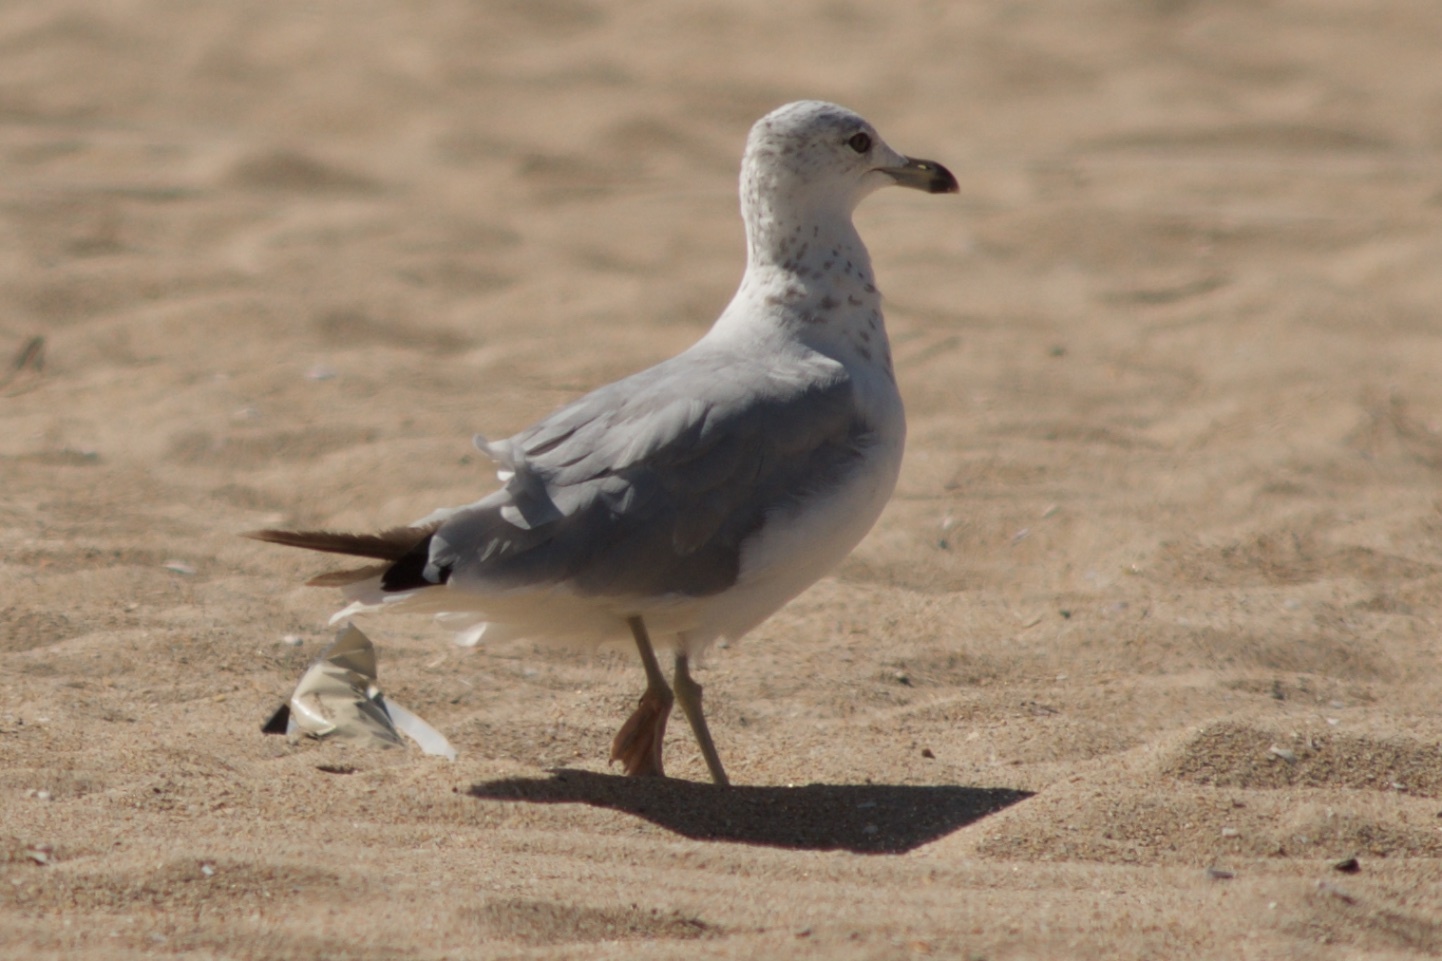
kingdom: Animalia
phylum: Chordata
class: Aves
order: Charadriiformes
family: Laridae
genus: Larus
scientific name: Larus delawarensis
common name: Ring-billed gull
